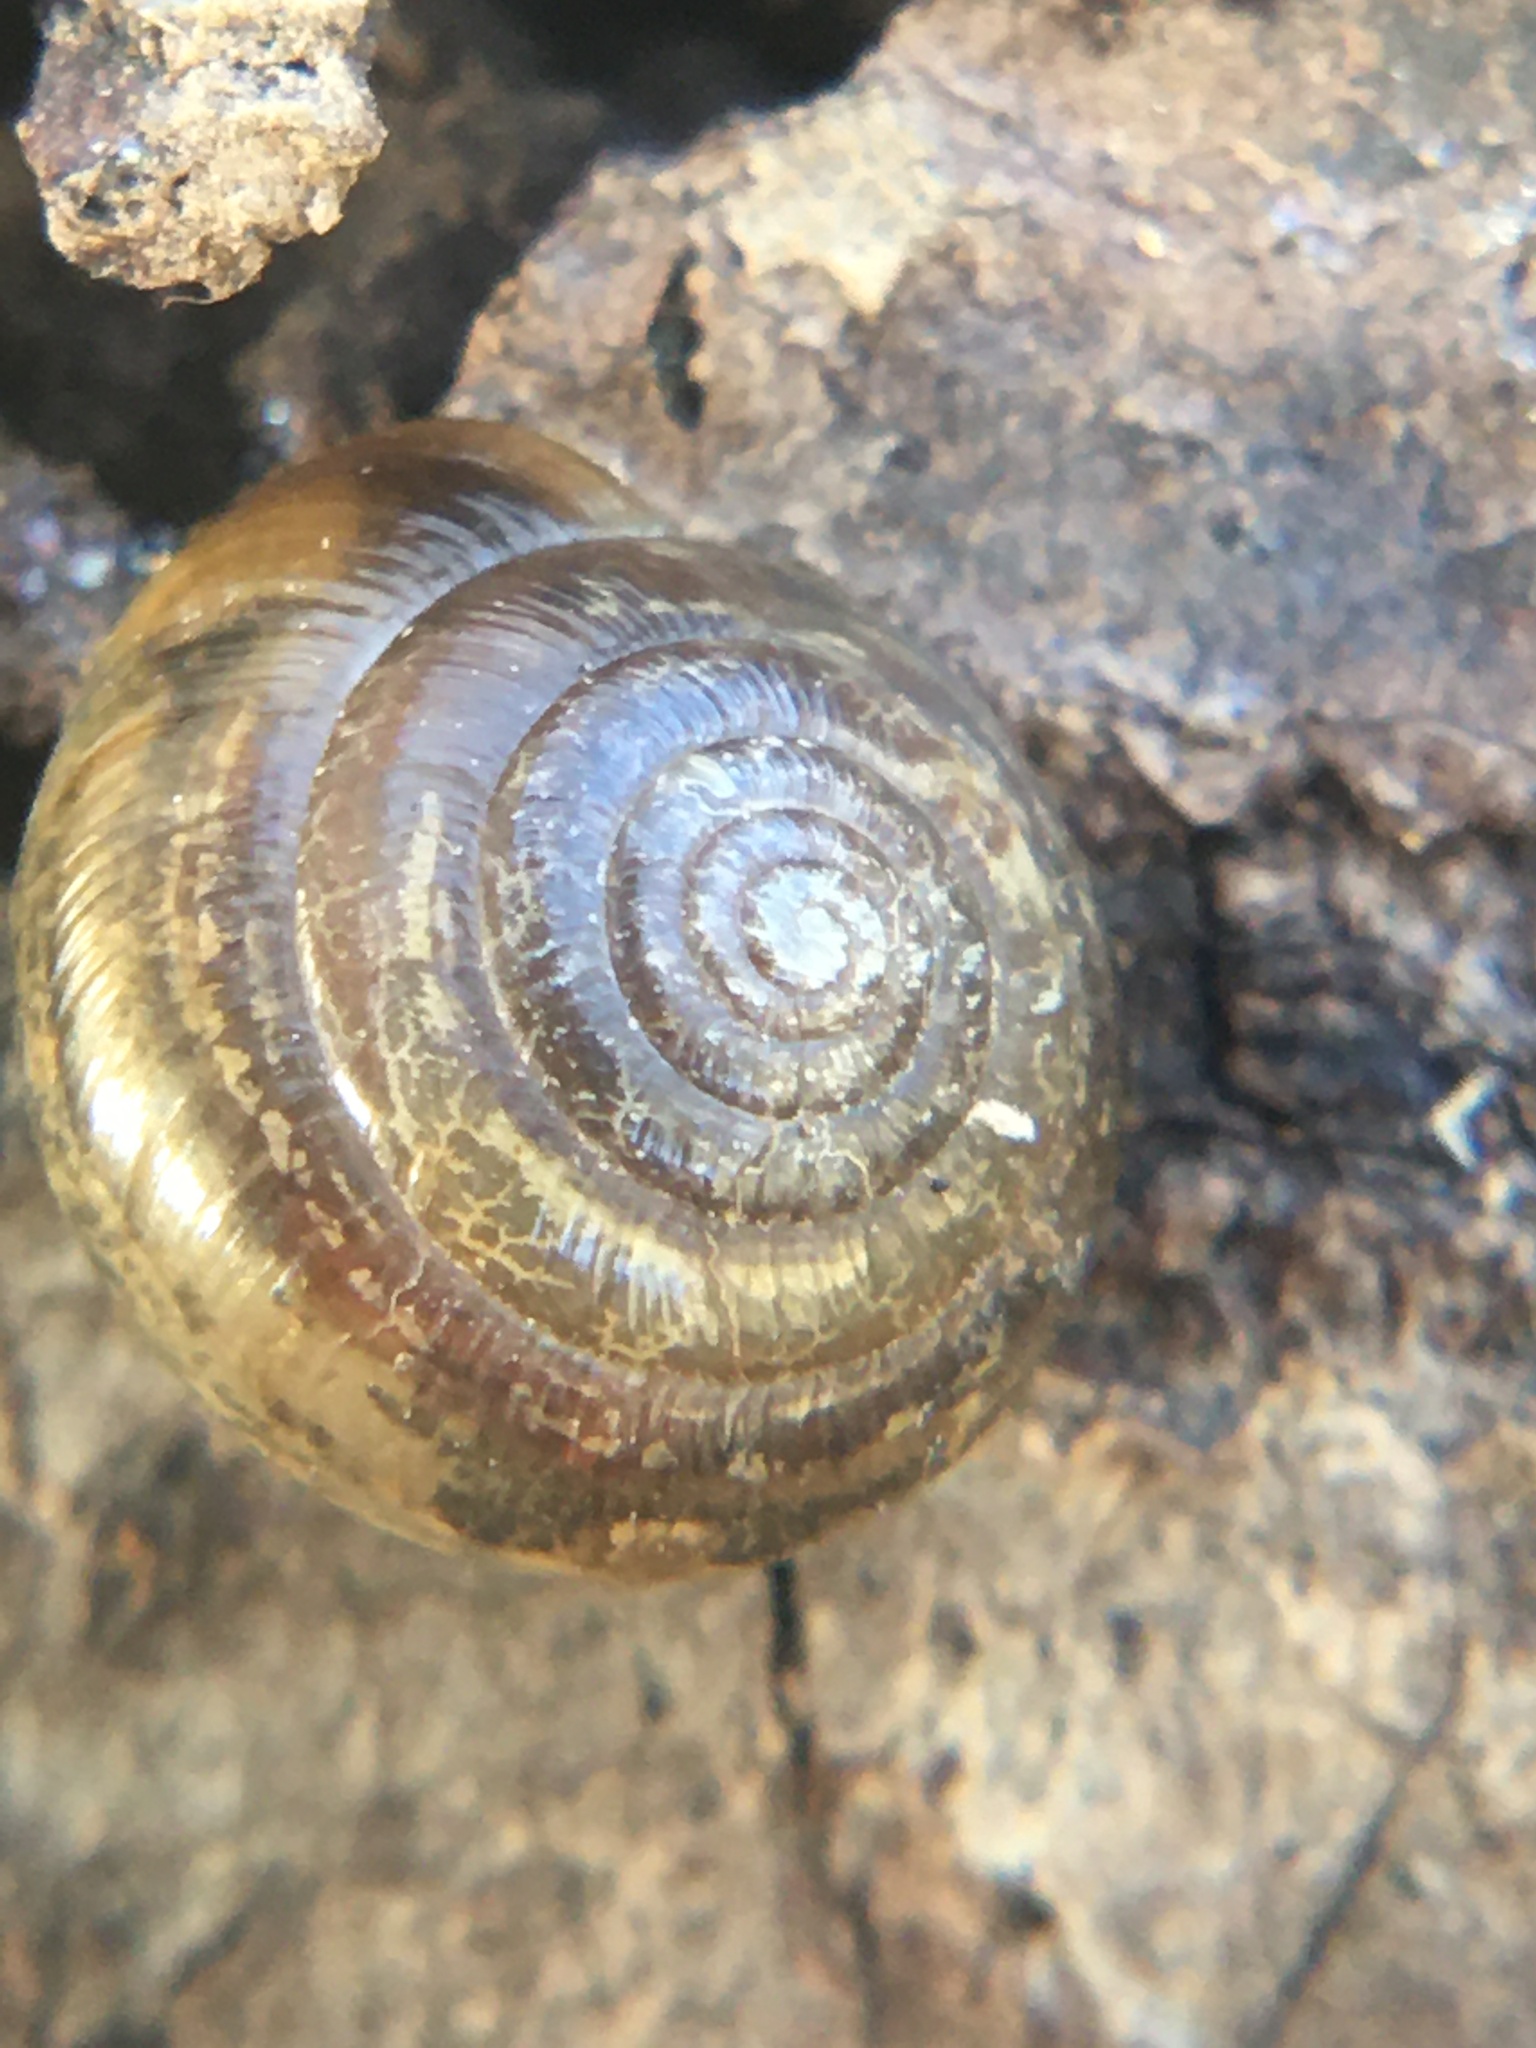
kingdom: Animalia
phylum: Mollusca
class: Gastropoda
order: Stylommatophora
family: Gastrodontidae
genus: Ventridens
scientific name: Ventridens ligera
